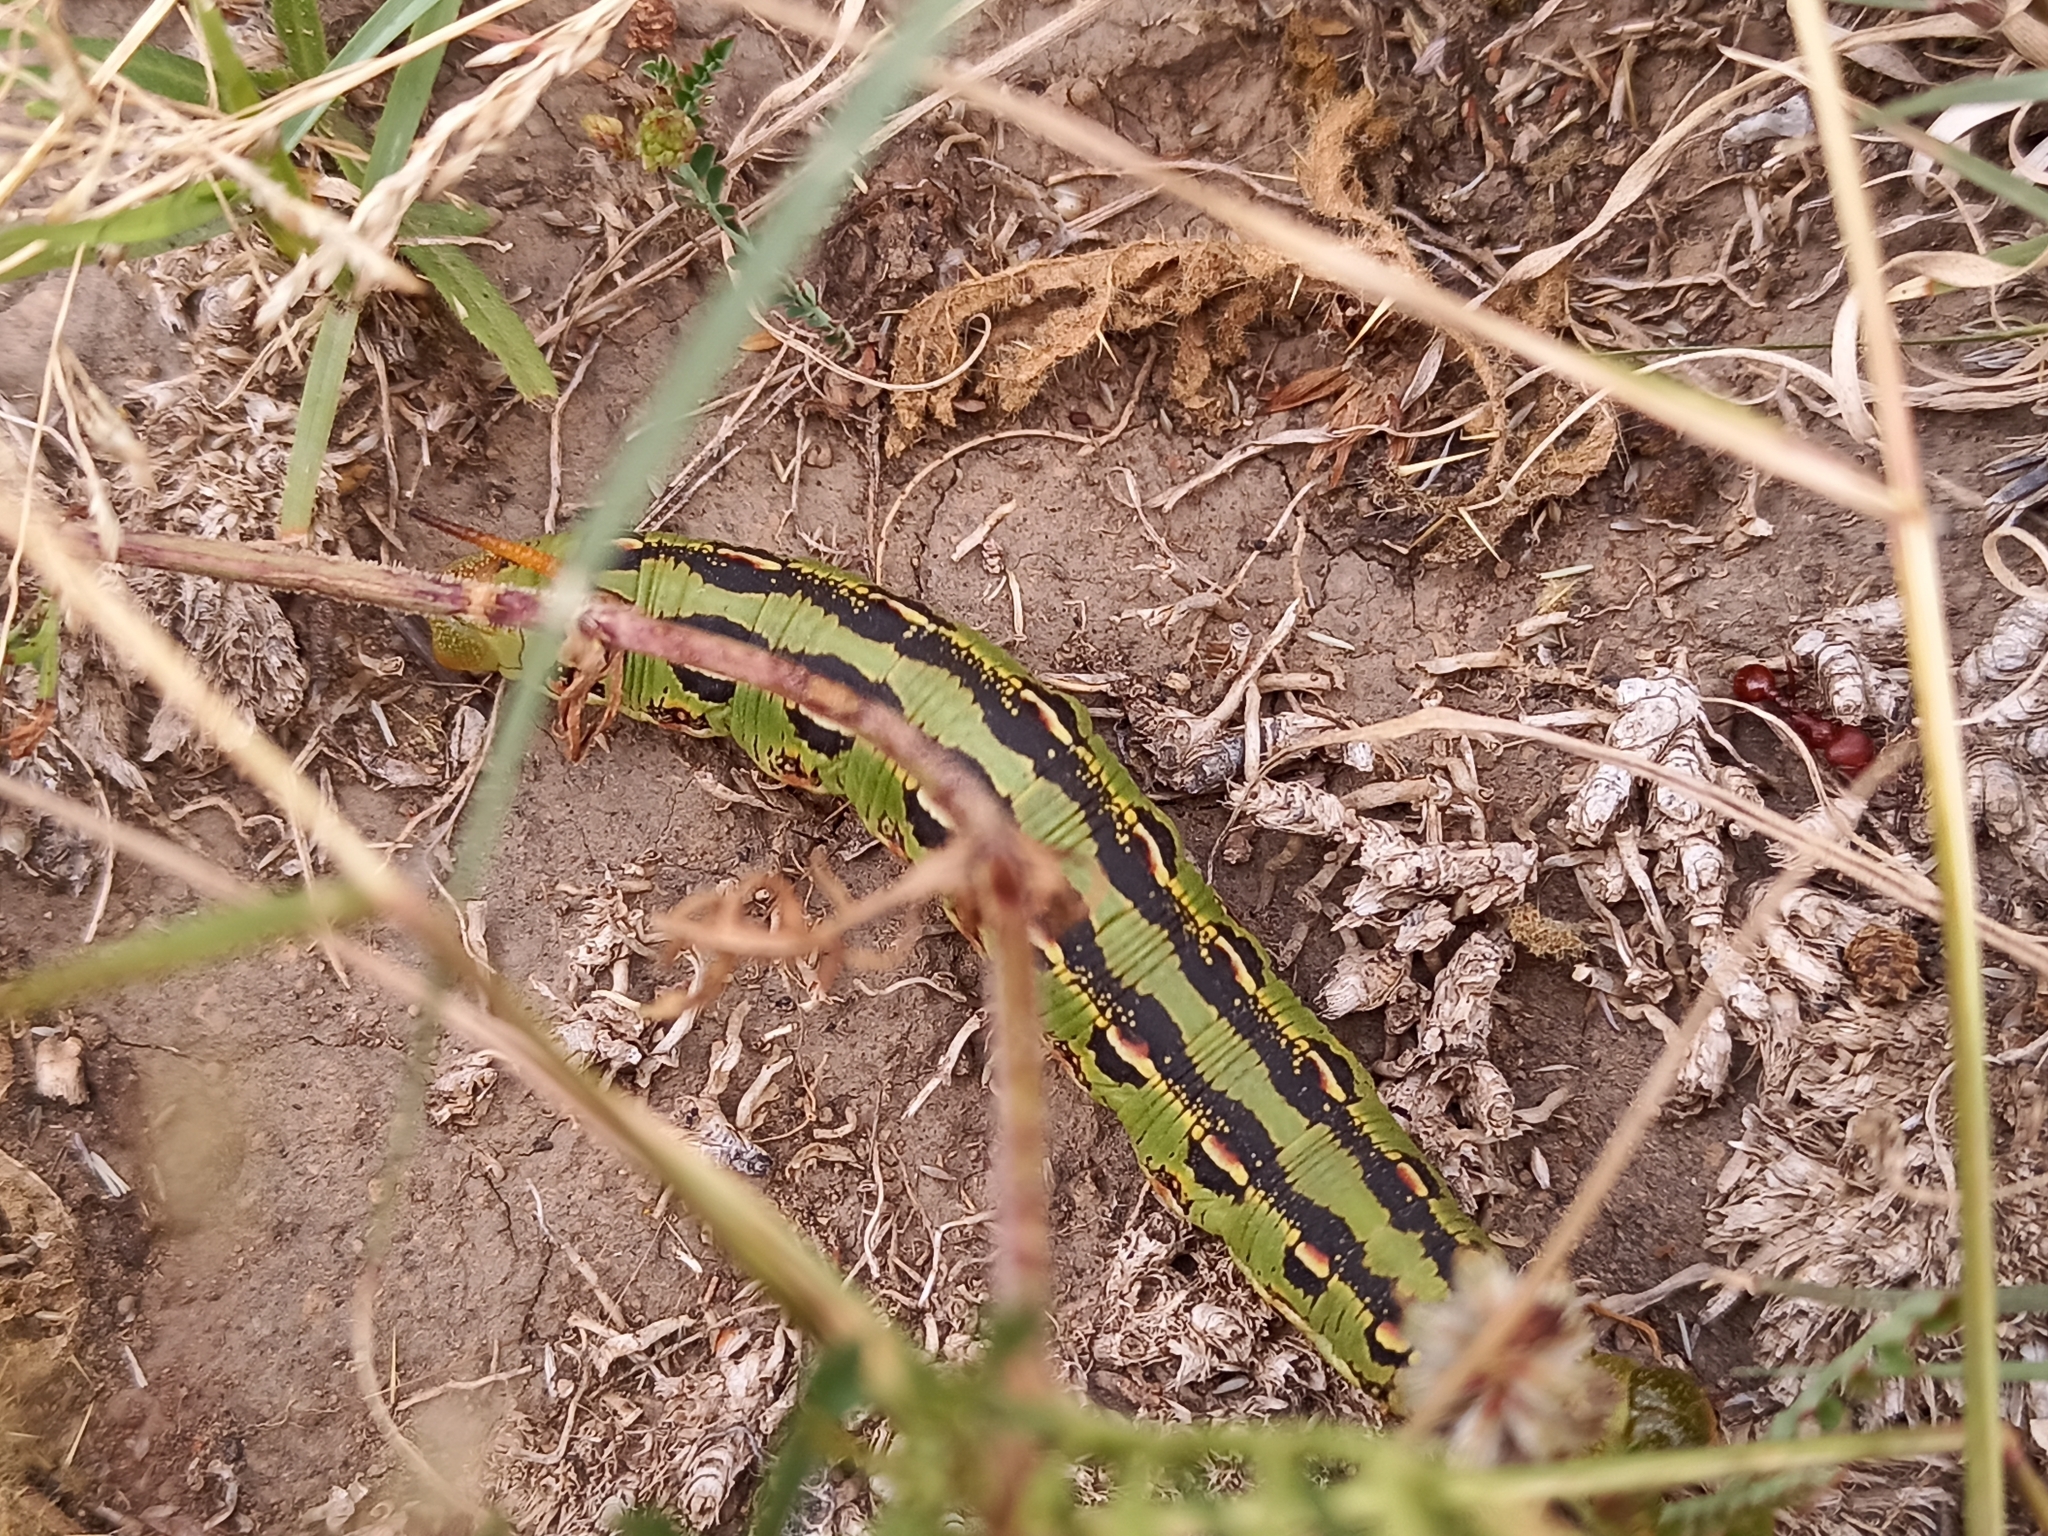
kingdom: Animalia
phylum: Arthropoda
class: Insecta
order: Lepidoptera
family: Sphingidae
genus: Hyles
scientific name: Hyles lineata
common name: White-lined sphinx
